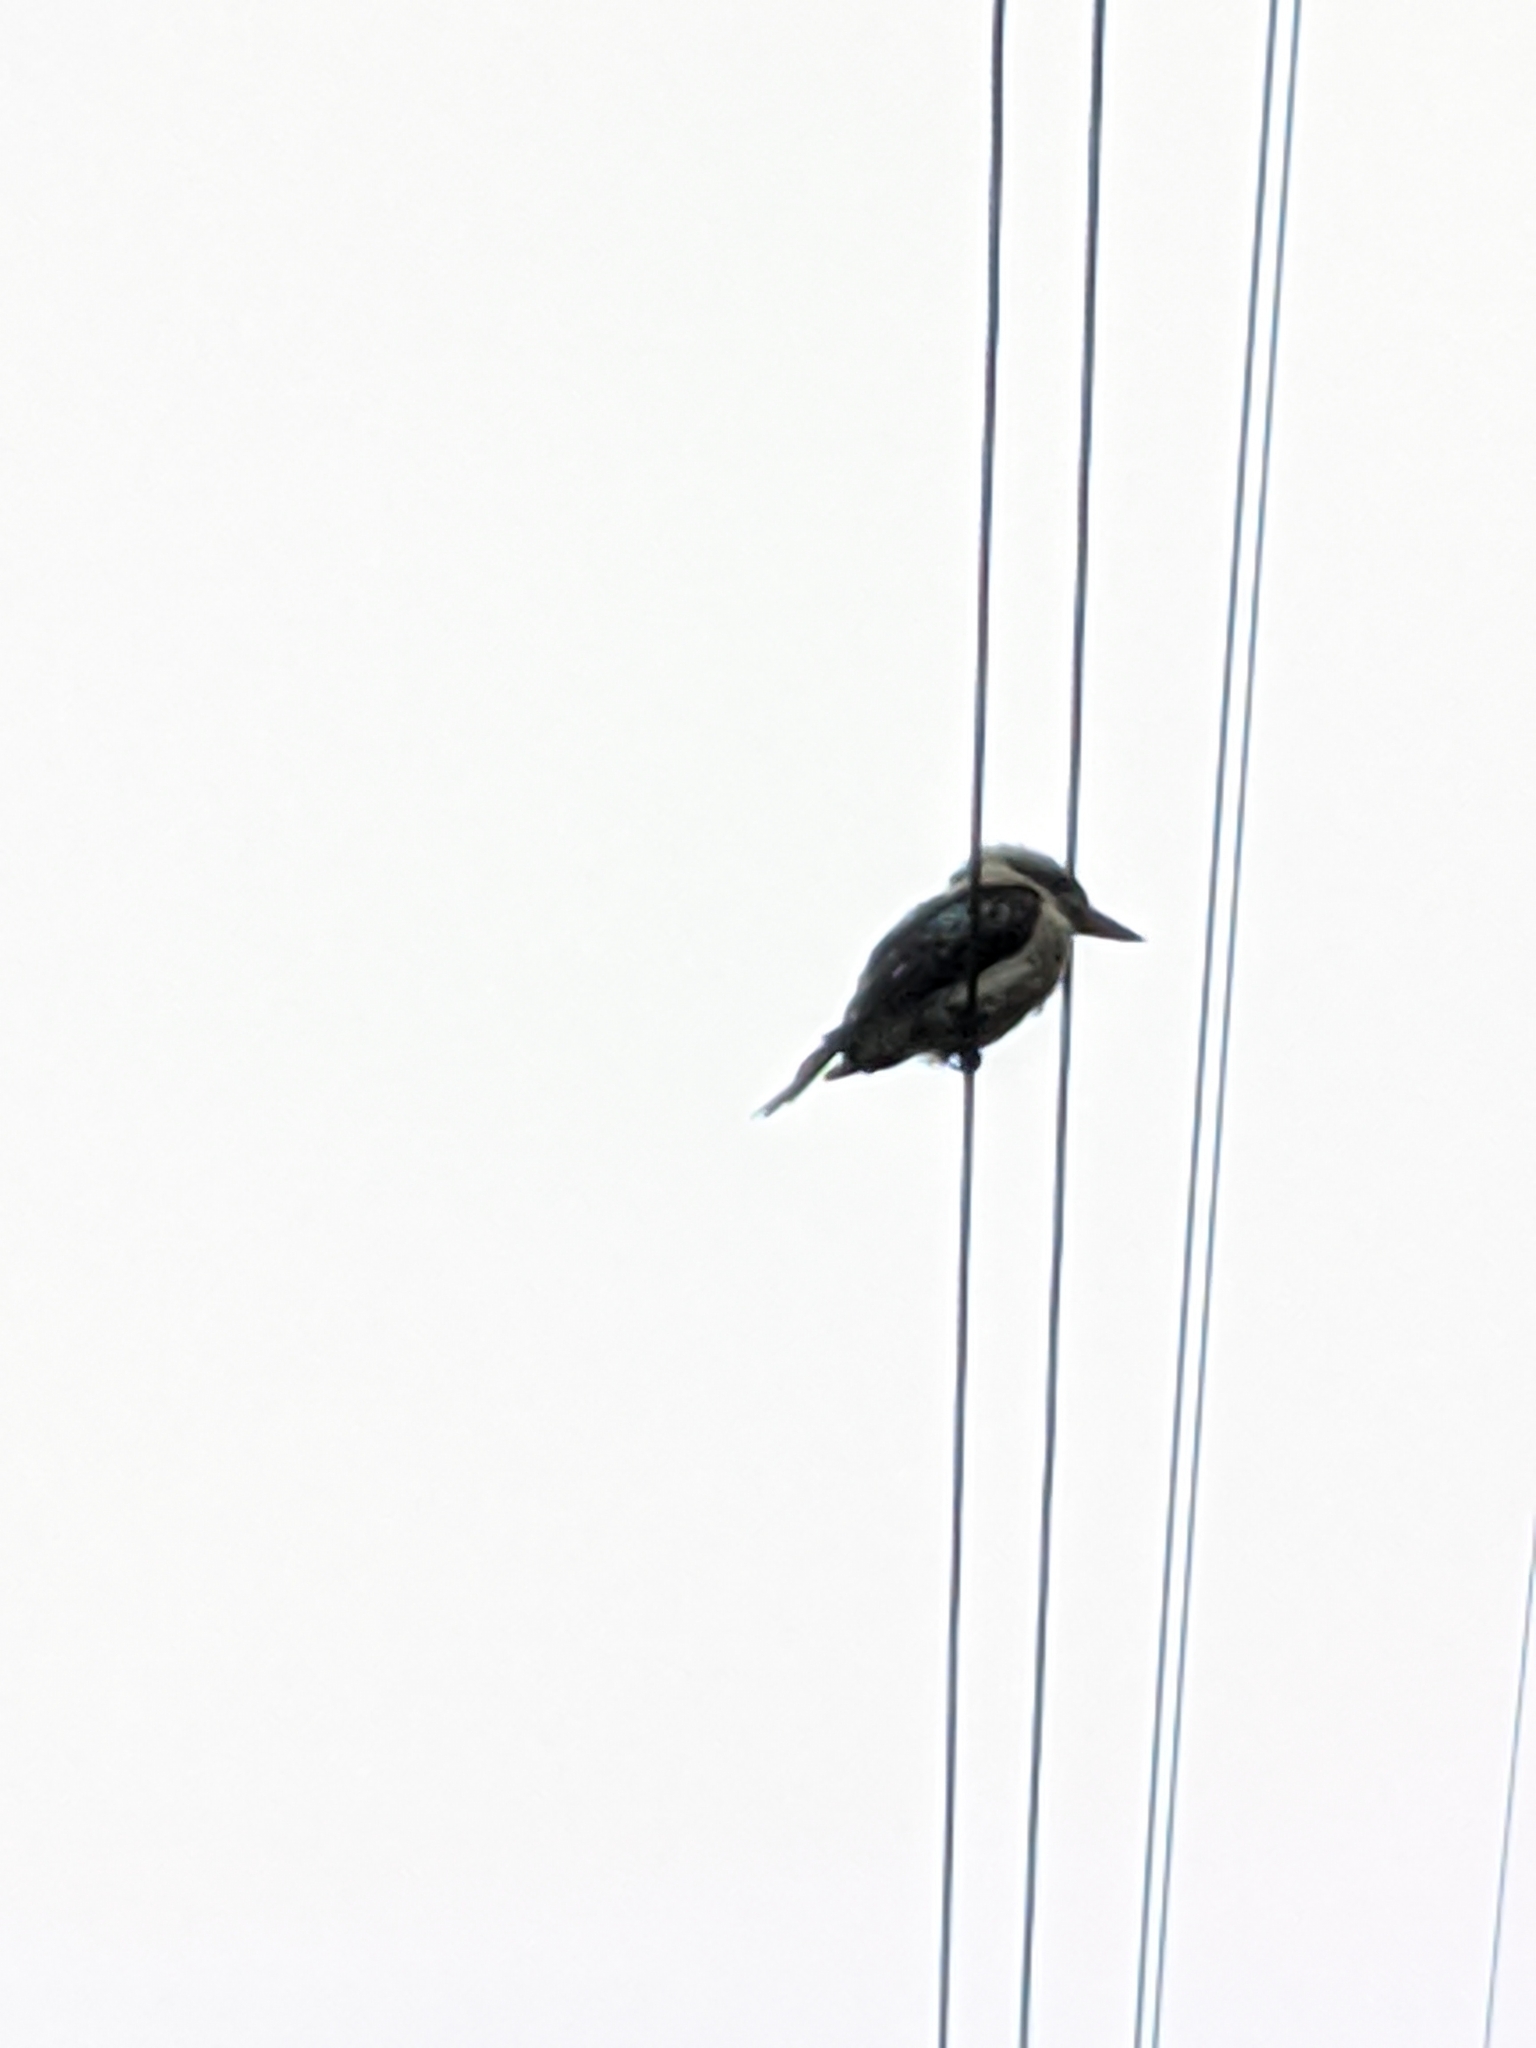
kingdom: Animalia
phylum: Chordata
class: Aves
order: Coraciiformes
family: Alcedinidae
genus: Dacelo
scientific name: Dacelo novaeguineae
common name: Laughing kookaburra
